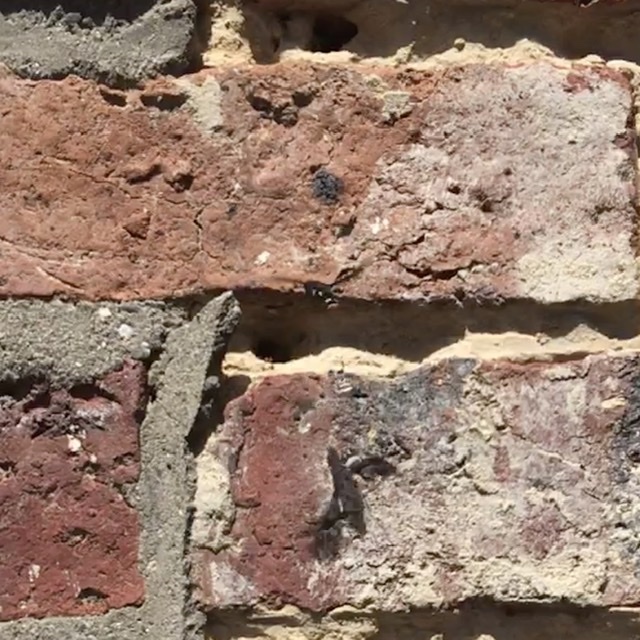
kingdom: Animalia
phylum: Arthropoda
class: Insecta
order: Diptera
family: Bombyliidae
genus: Anthrax
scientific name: Anthrax anthrax
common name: Anthracite bee-fly
